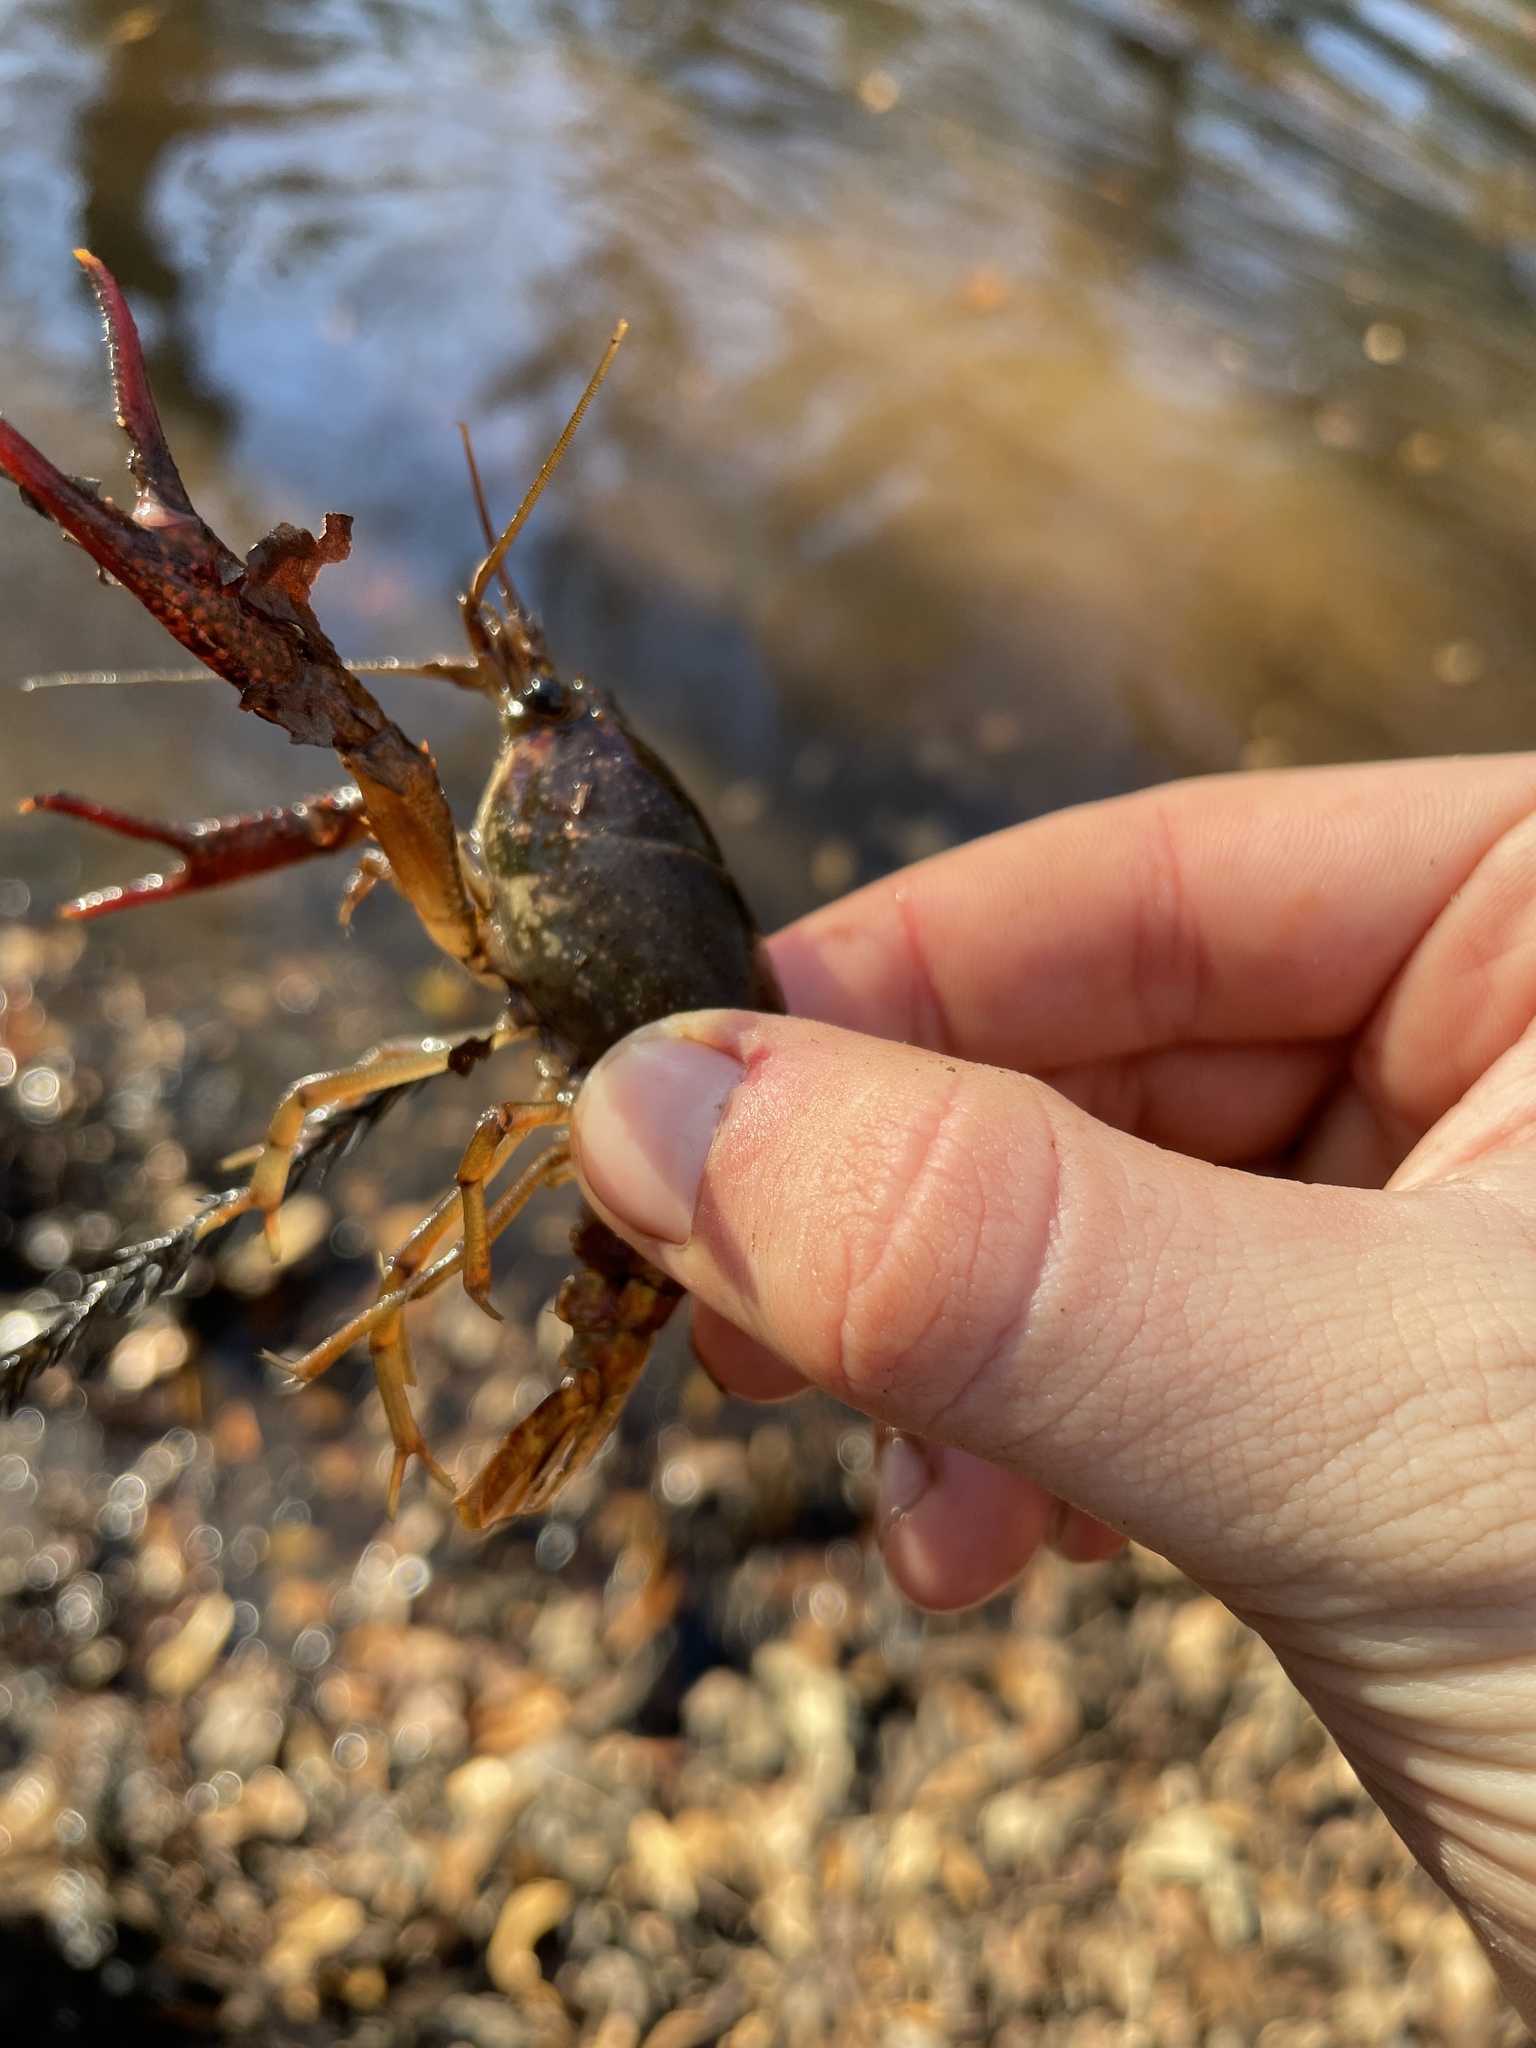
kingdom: Animalia
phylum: Arthropoda
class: Malacostraca
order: Decapoda
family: Cambaridae
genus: Procambarus
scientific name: Procambarus paeninsulanus
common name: Peninsula crayfish
